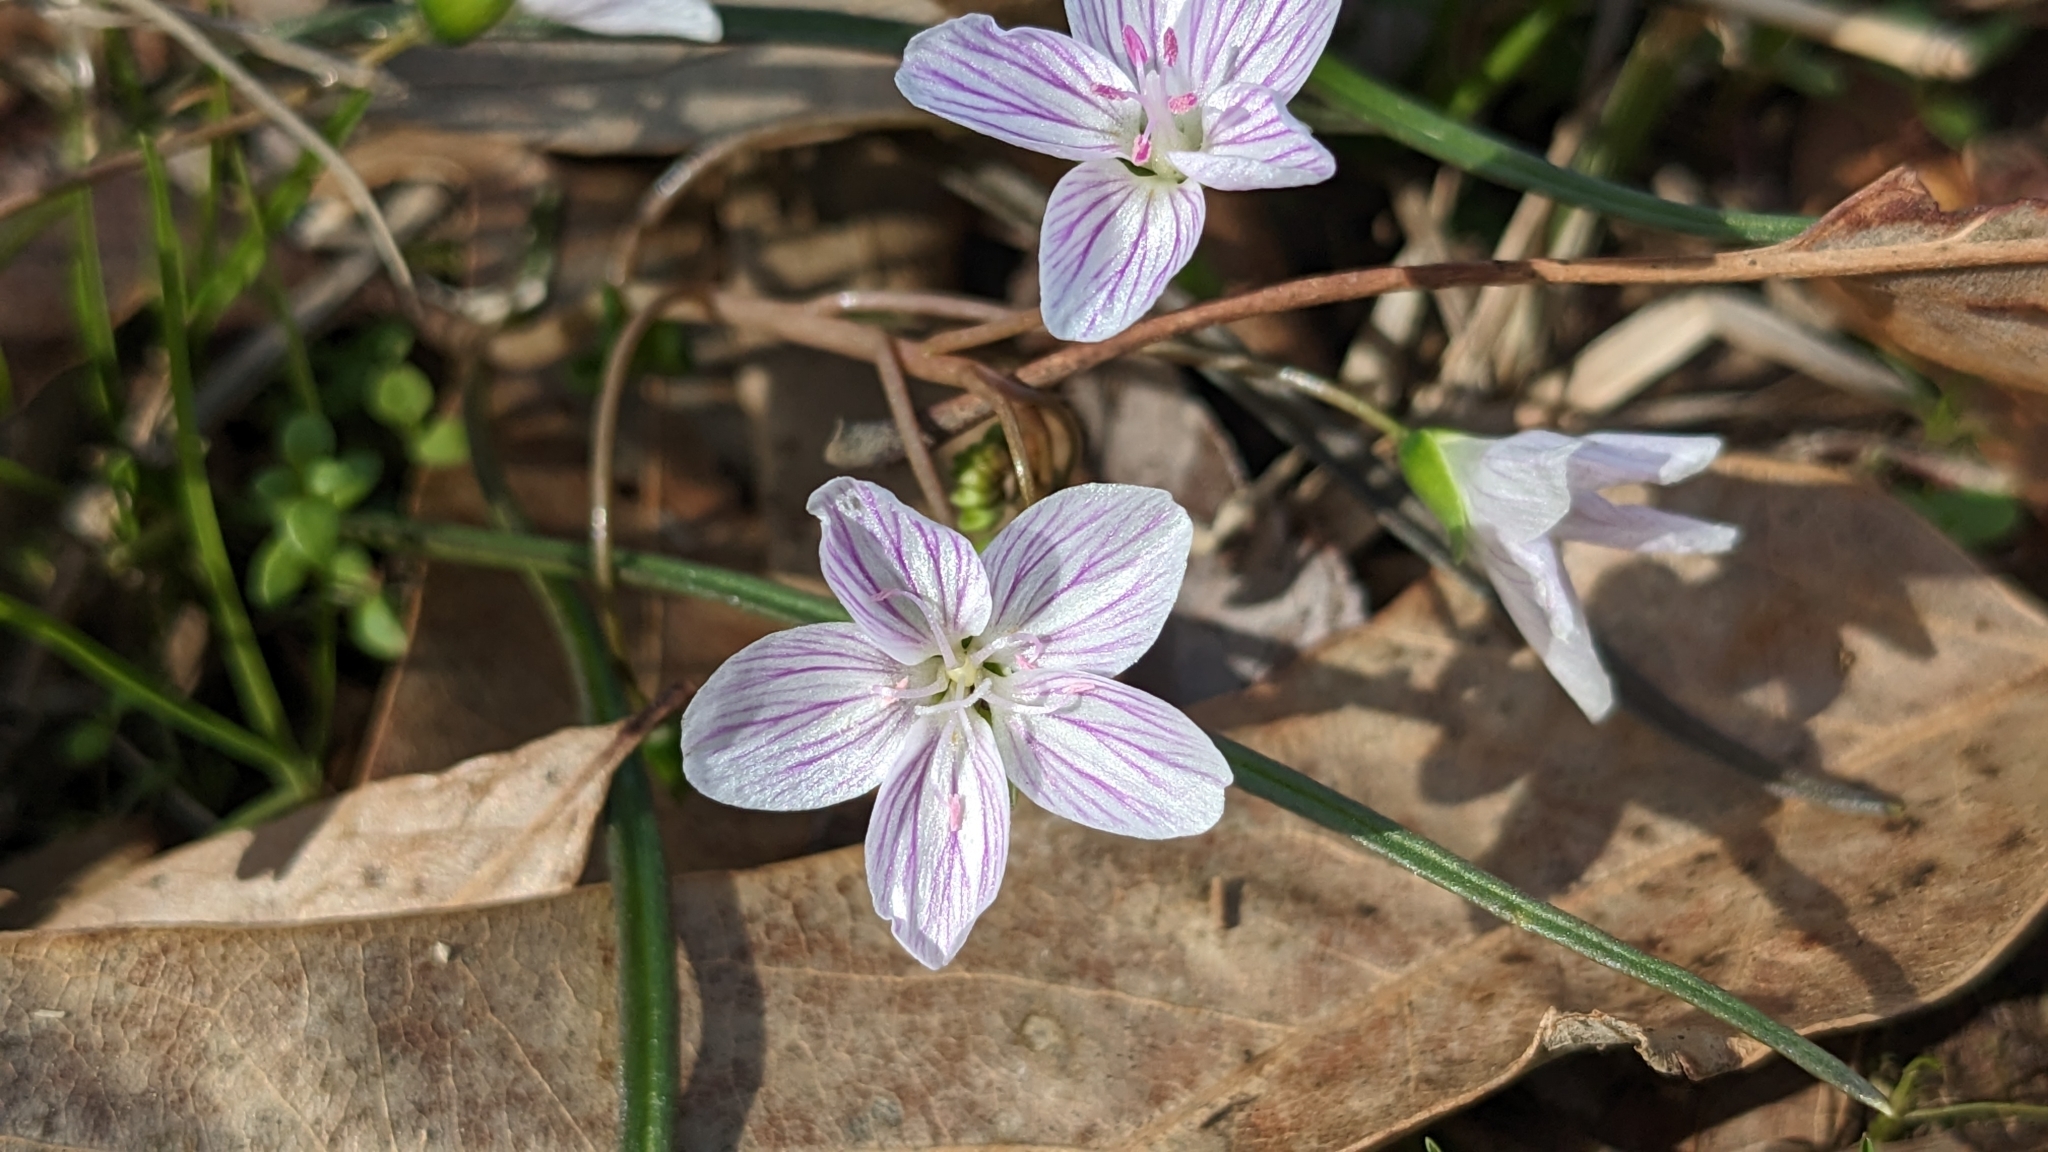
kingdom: Plantae
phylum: Tracheophyta
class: Magnoliopsida
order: Caryophyllales
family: Montiaceae
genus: Claytonia
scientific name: Claytonia virginica
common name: Virginia springbeauty
